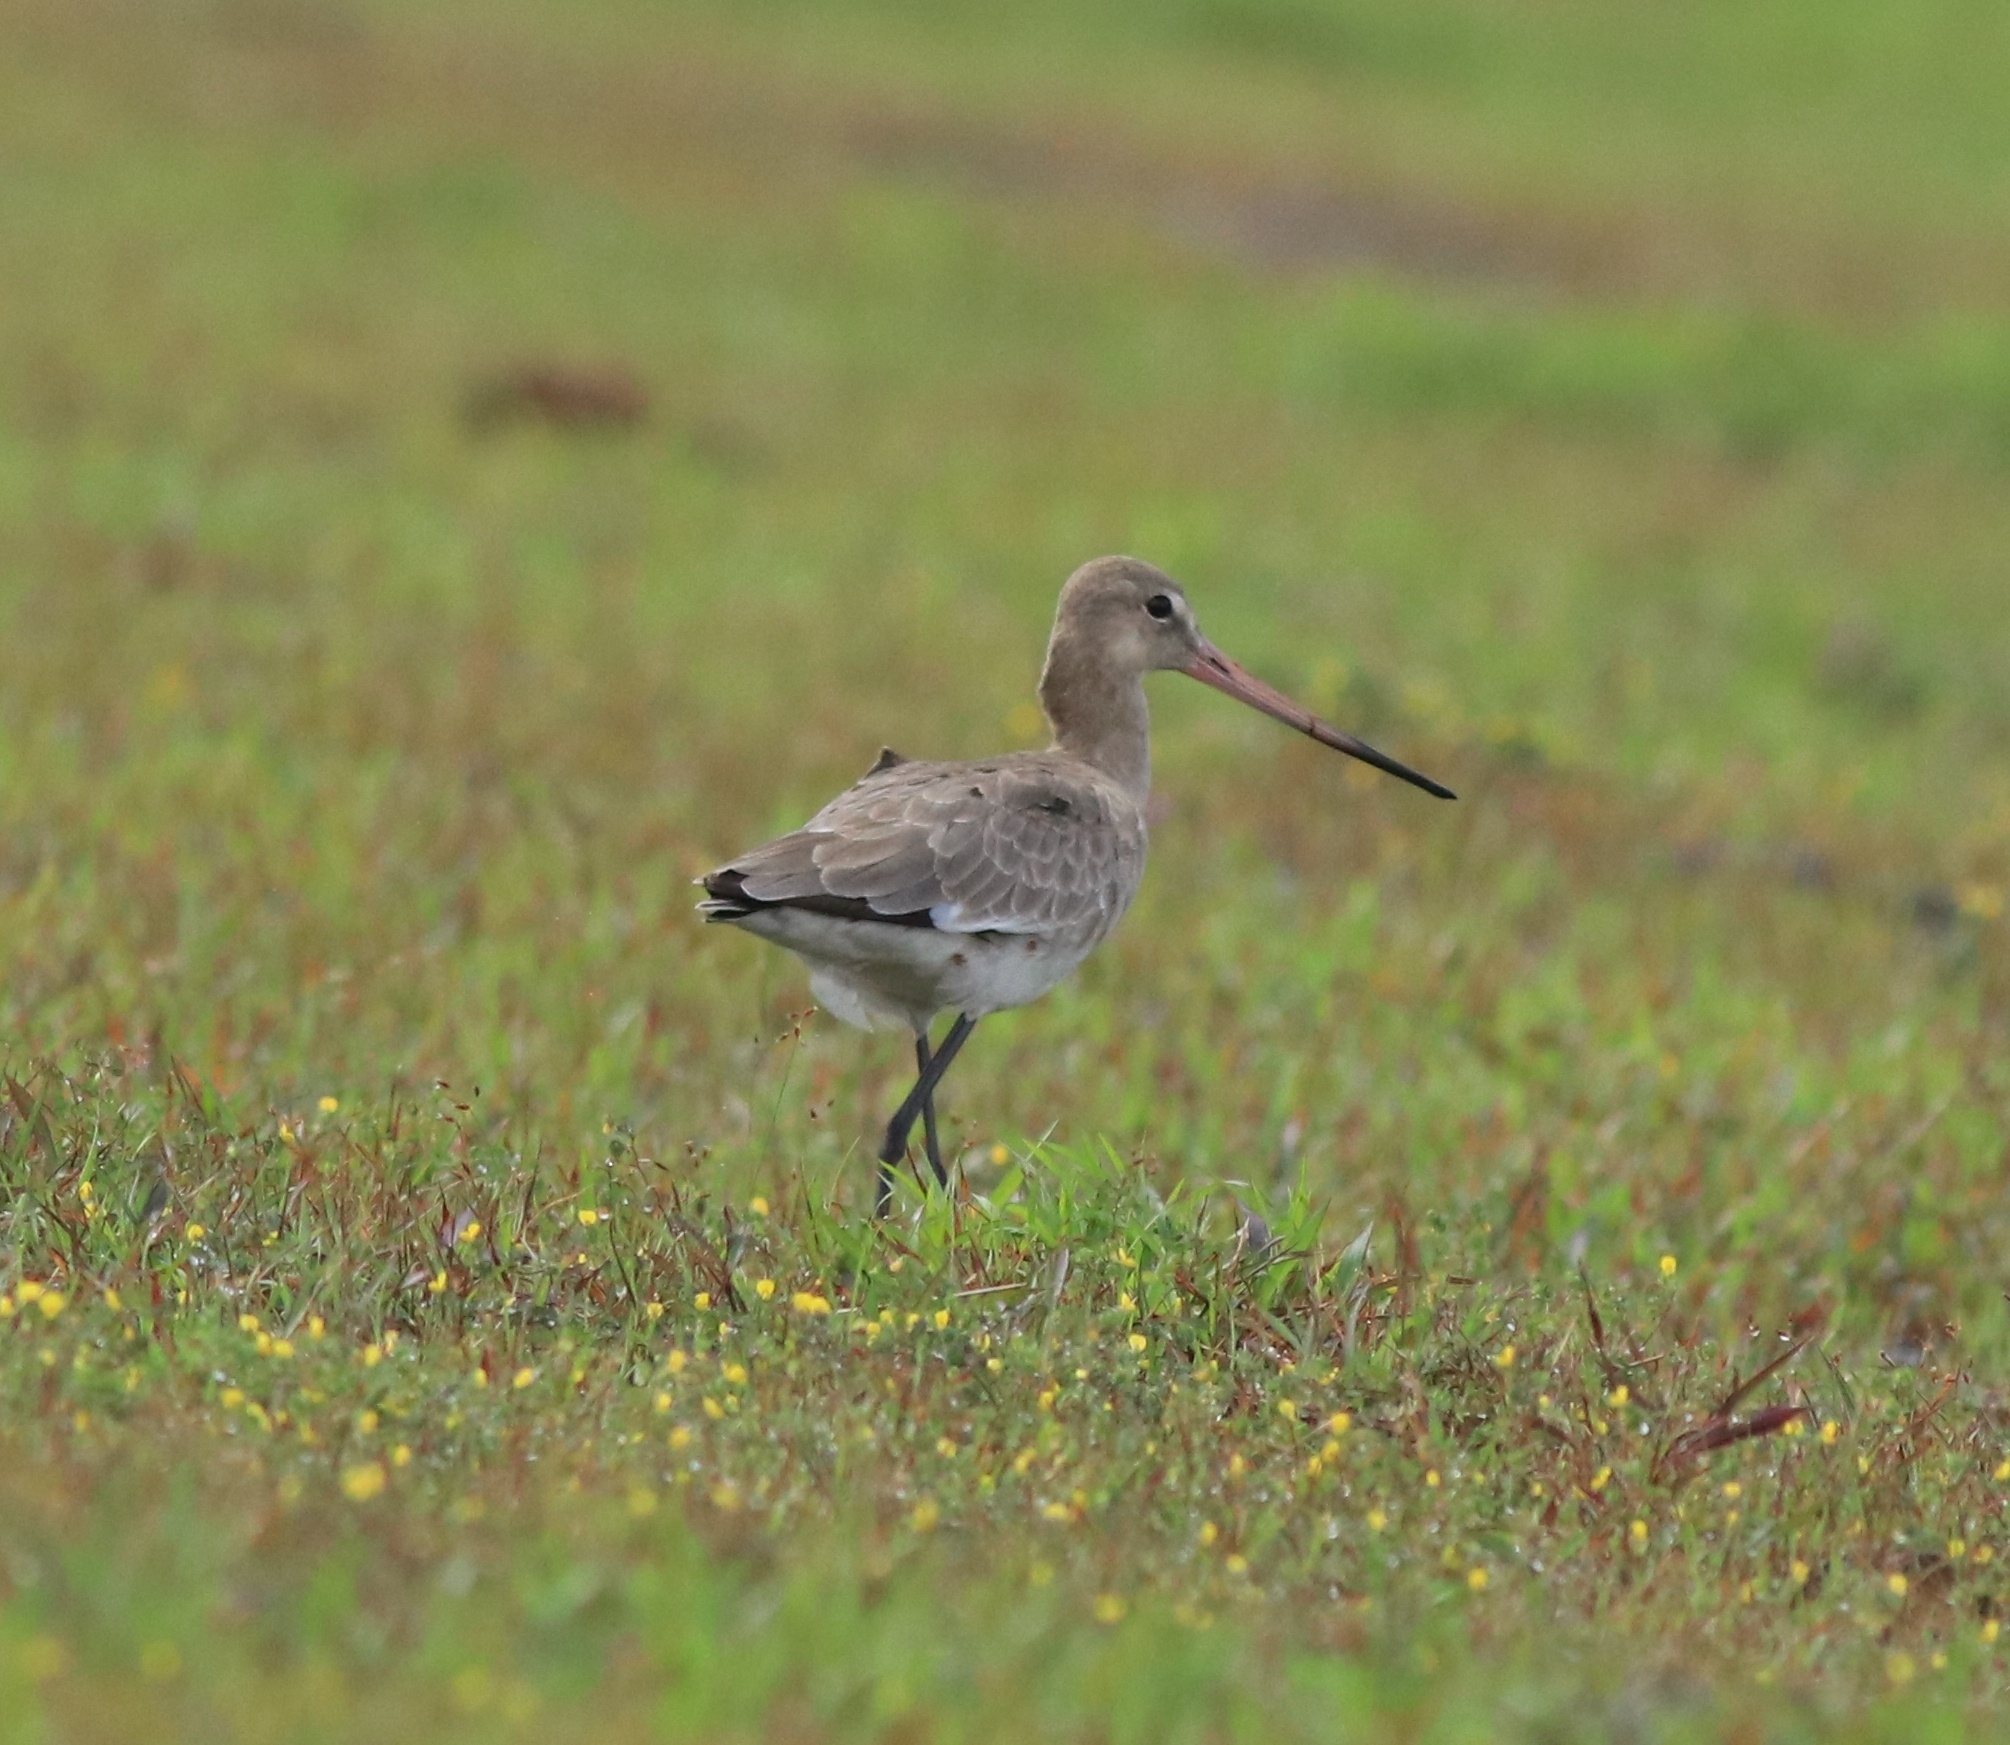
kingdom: Animalia
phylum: Chordata
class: Aves
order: Charadriiformes
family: Scolopacidae
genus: Limosa
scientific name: Limosa limosa
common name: Black-tailed godwit
